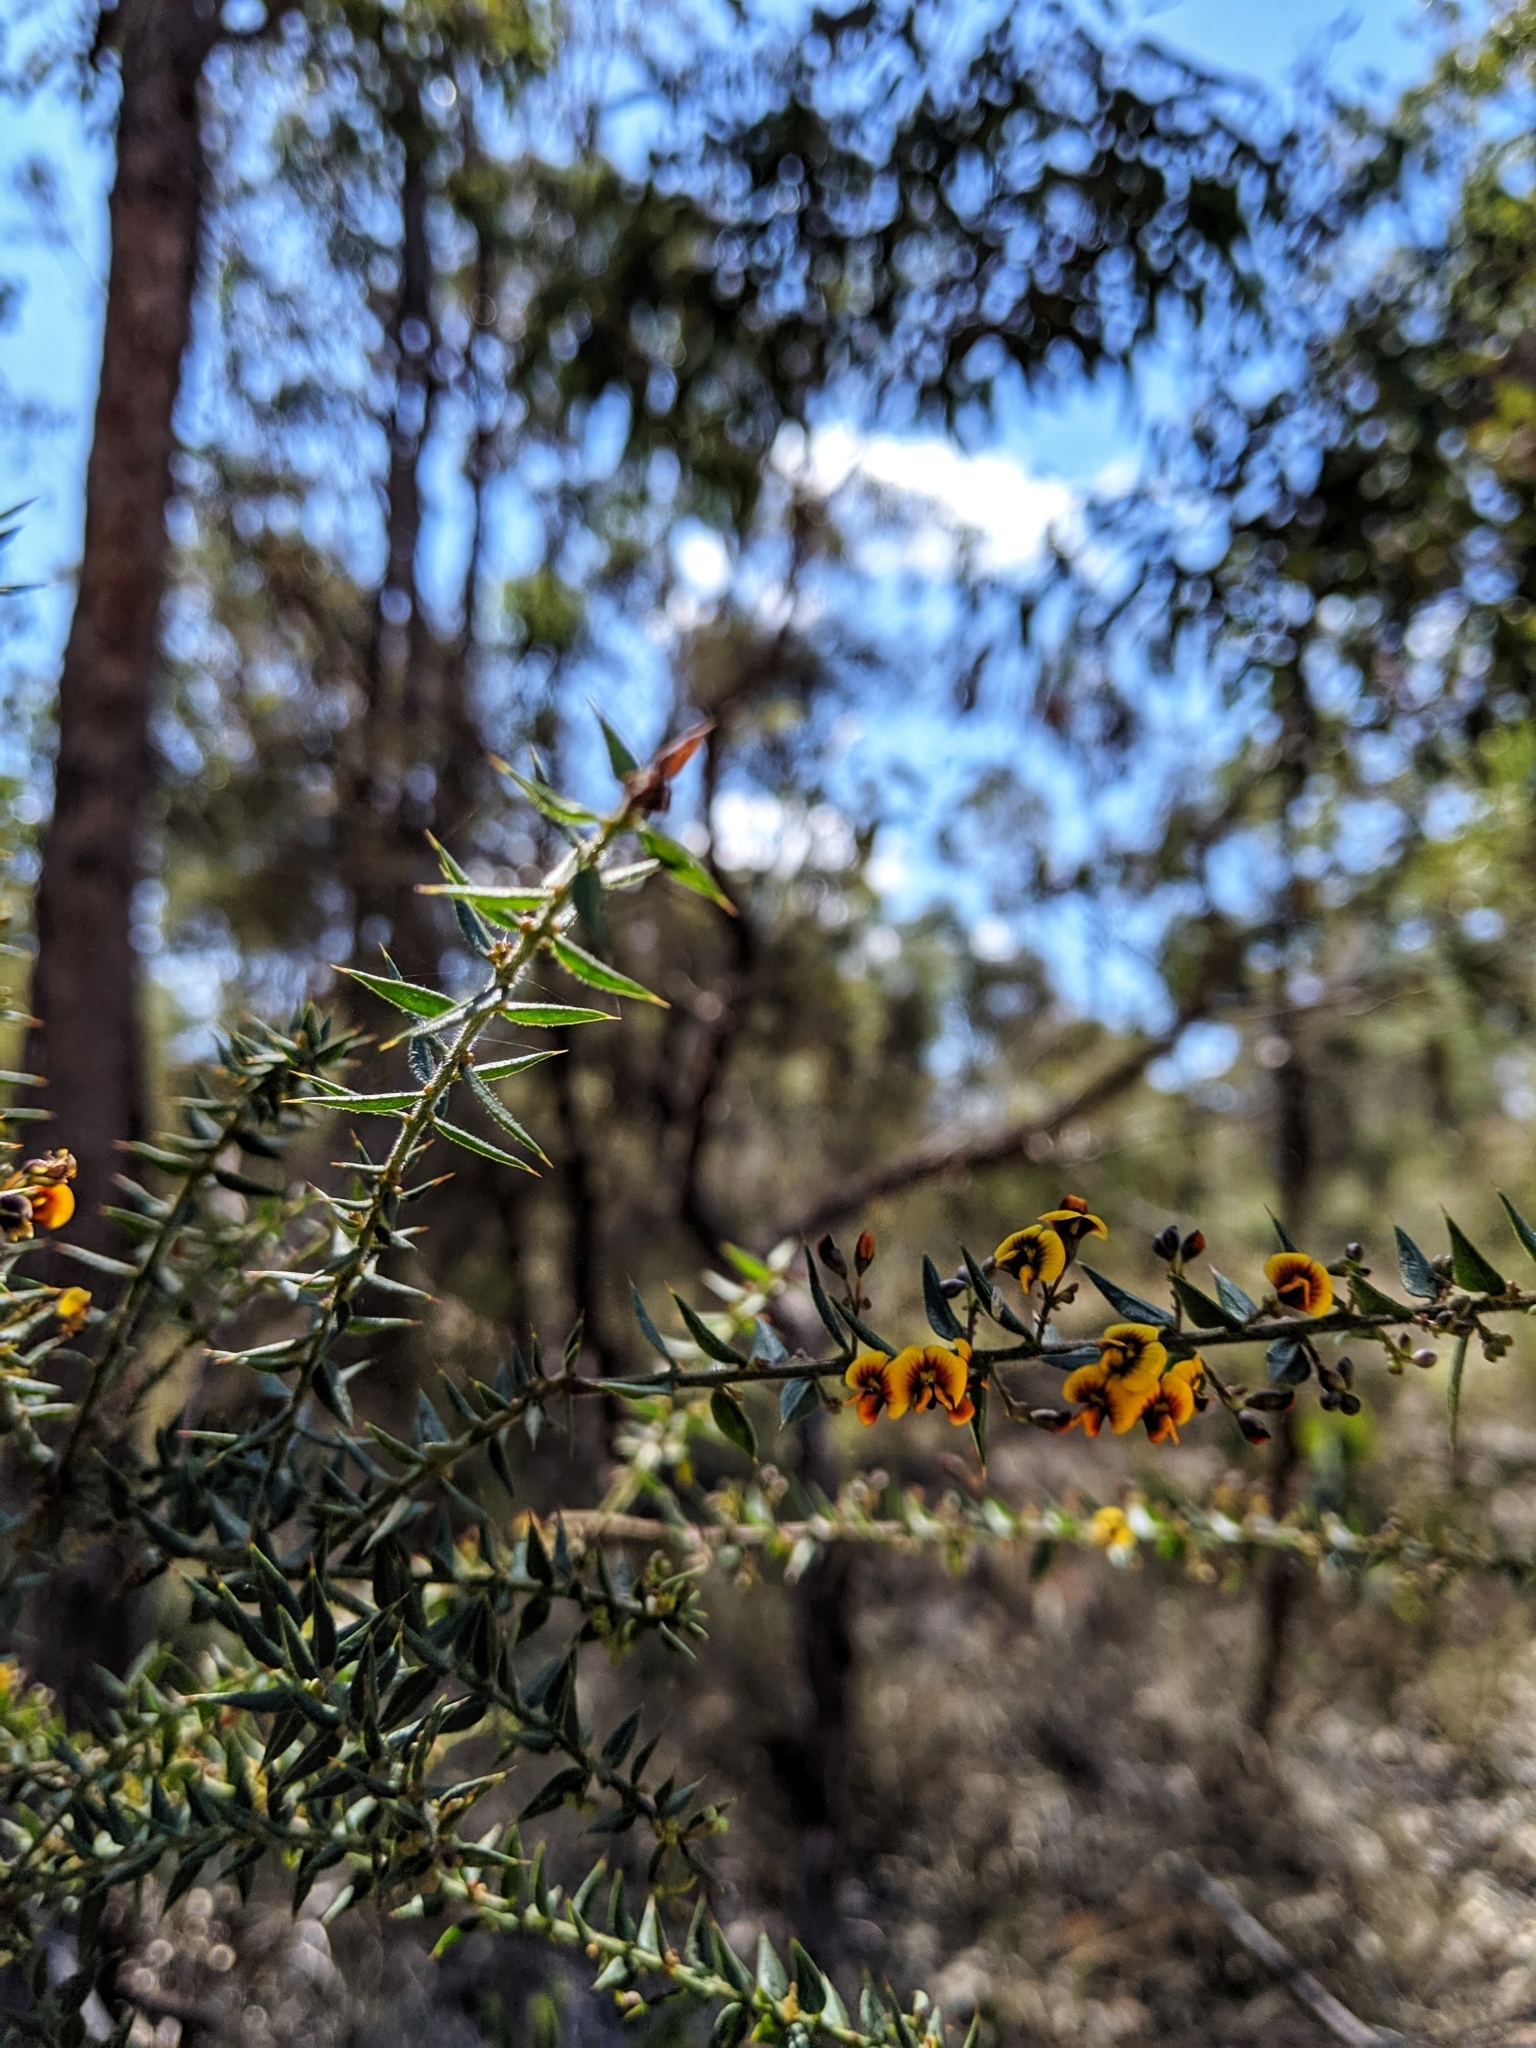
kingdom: Plantae
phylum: Tracheophyta
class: Magnoliopsida
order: Fabales
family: Fabaceae
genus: Daviesia
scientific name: Daviesia villifera
